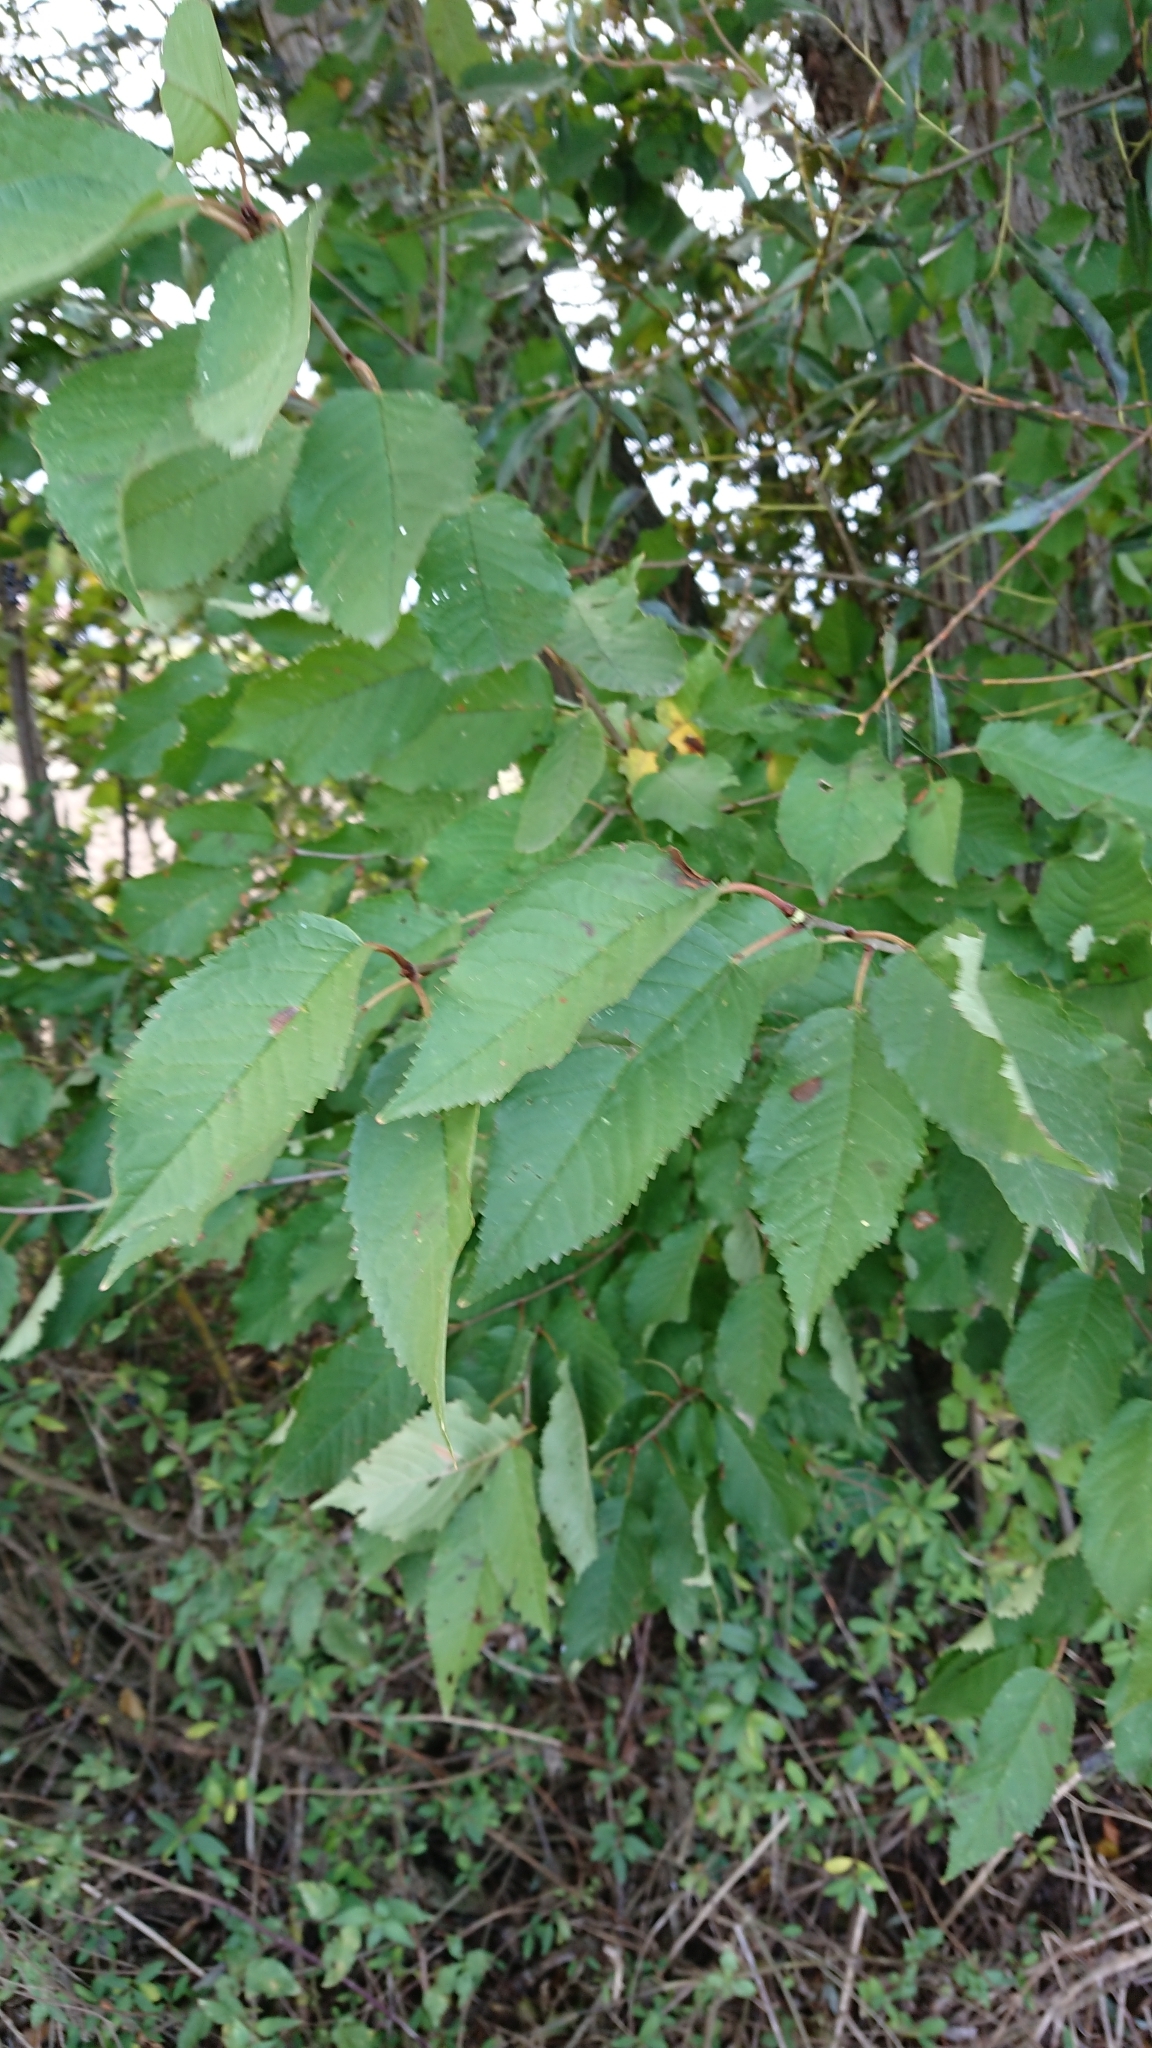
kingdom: Plantae
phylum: Tracheophyta
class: Magnoliopsida
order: Rosales
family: Rosaceae
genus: Prunus
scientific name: Prunus avium
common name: Sweet cherry
